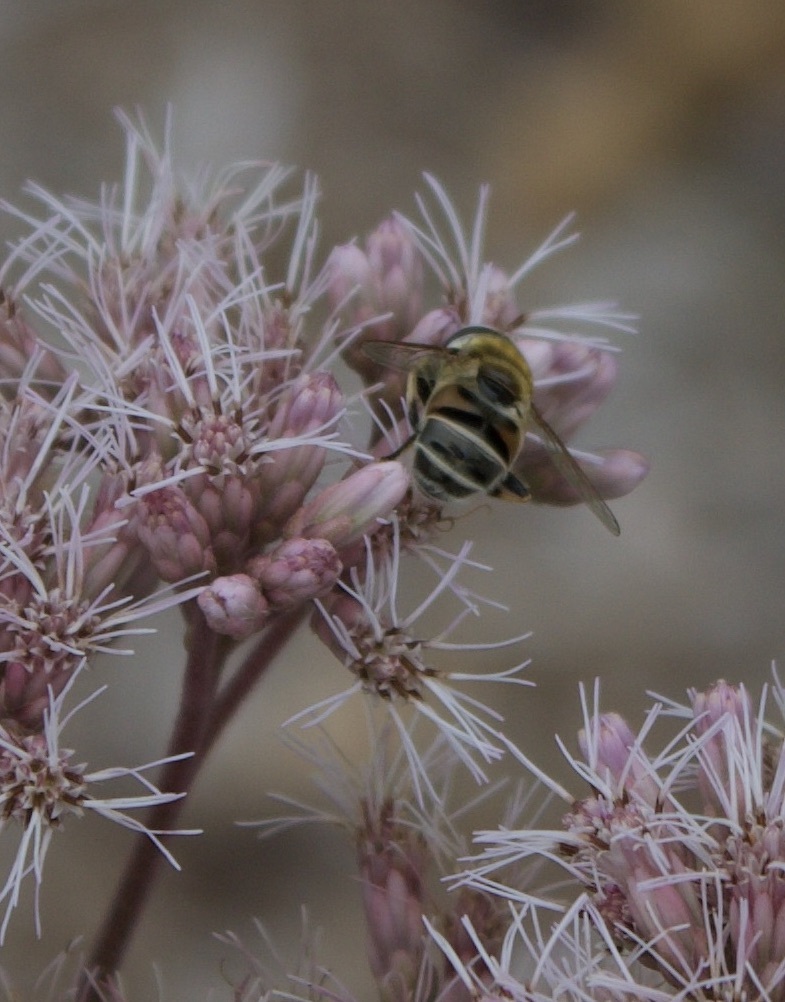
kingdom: Animalia
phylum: Arthropoda
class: Insecta
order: Diptera
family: Syrphidae
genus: Eristalis
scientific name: Eristalis stipator
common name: Yellow-shouldered drone fly
